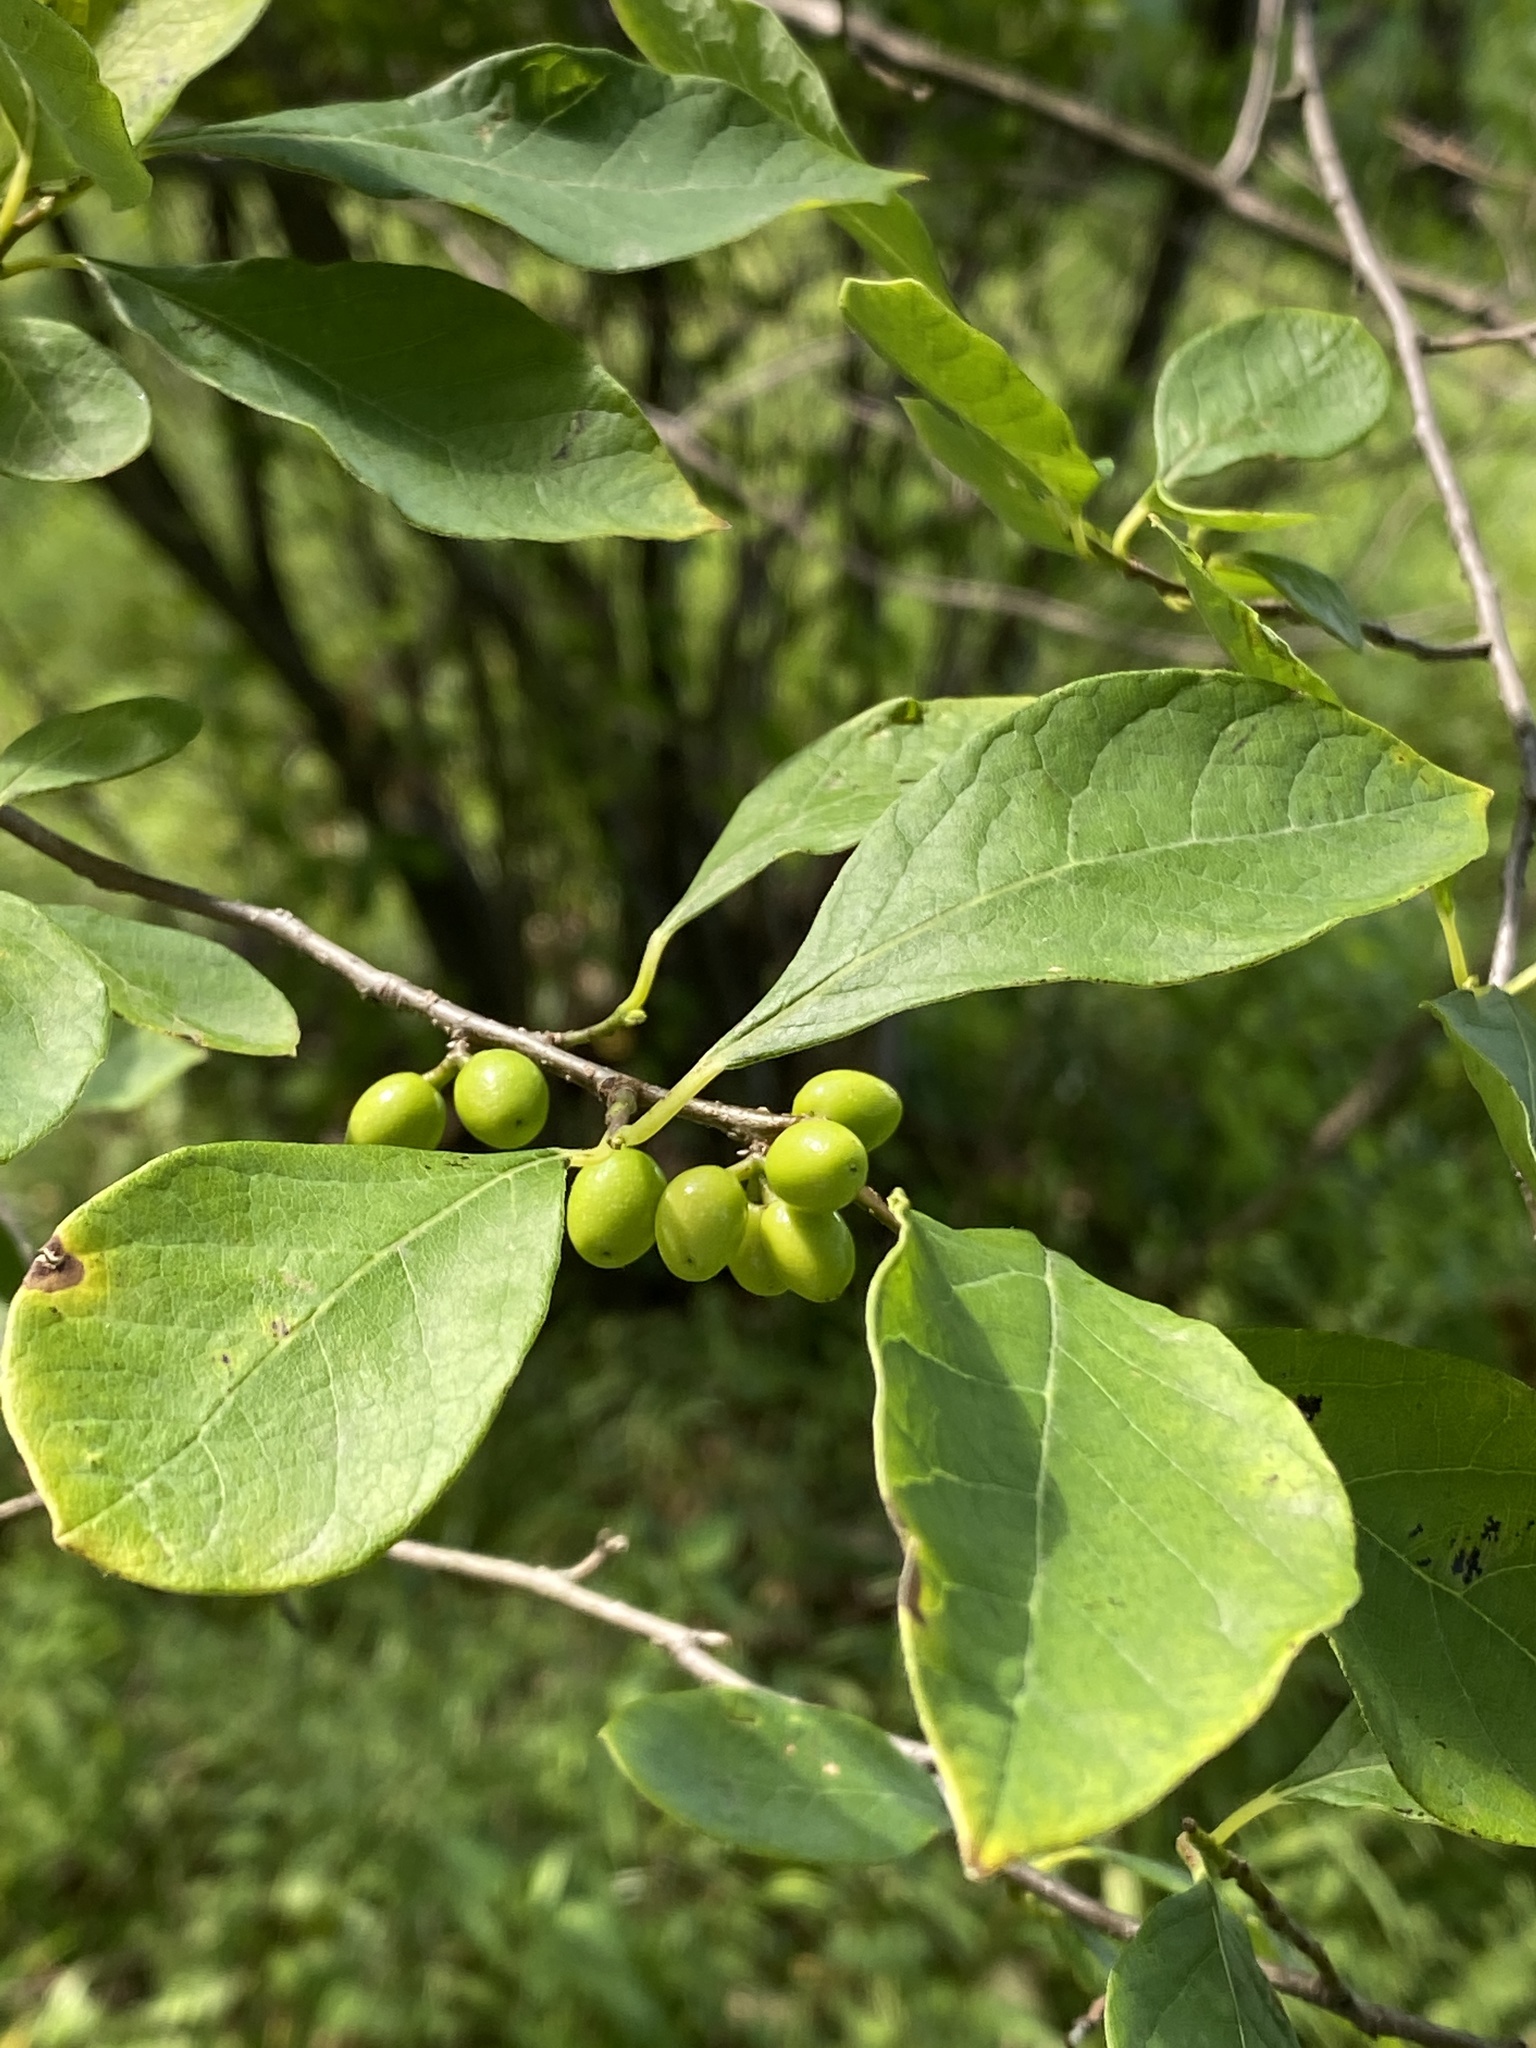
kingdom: Plantae
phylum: Tracheophyta
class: Magnoliopsida
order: Laurales
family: Lauraceae
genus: Lindera
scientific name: Lindera benzoin
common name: Spicebush
